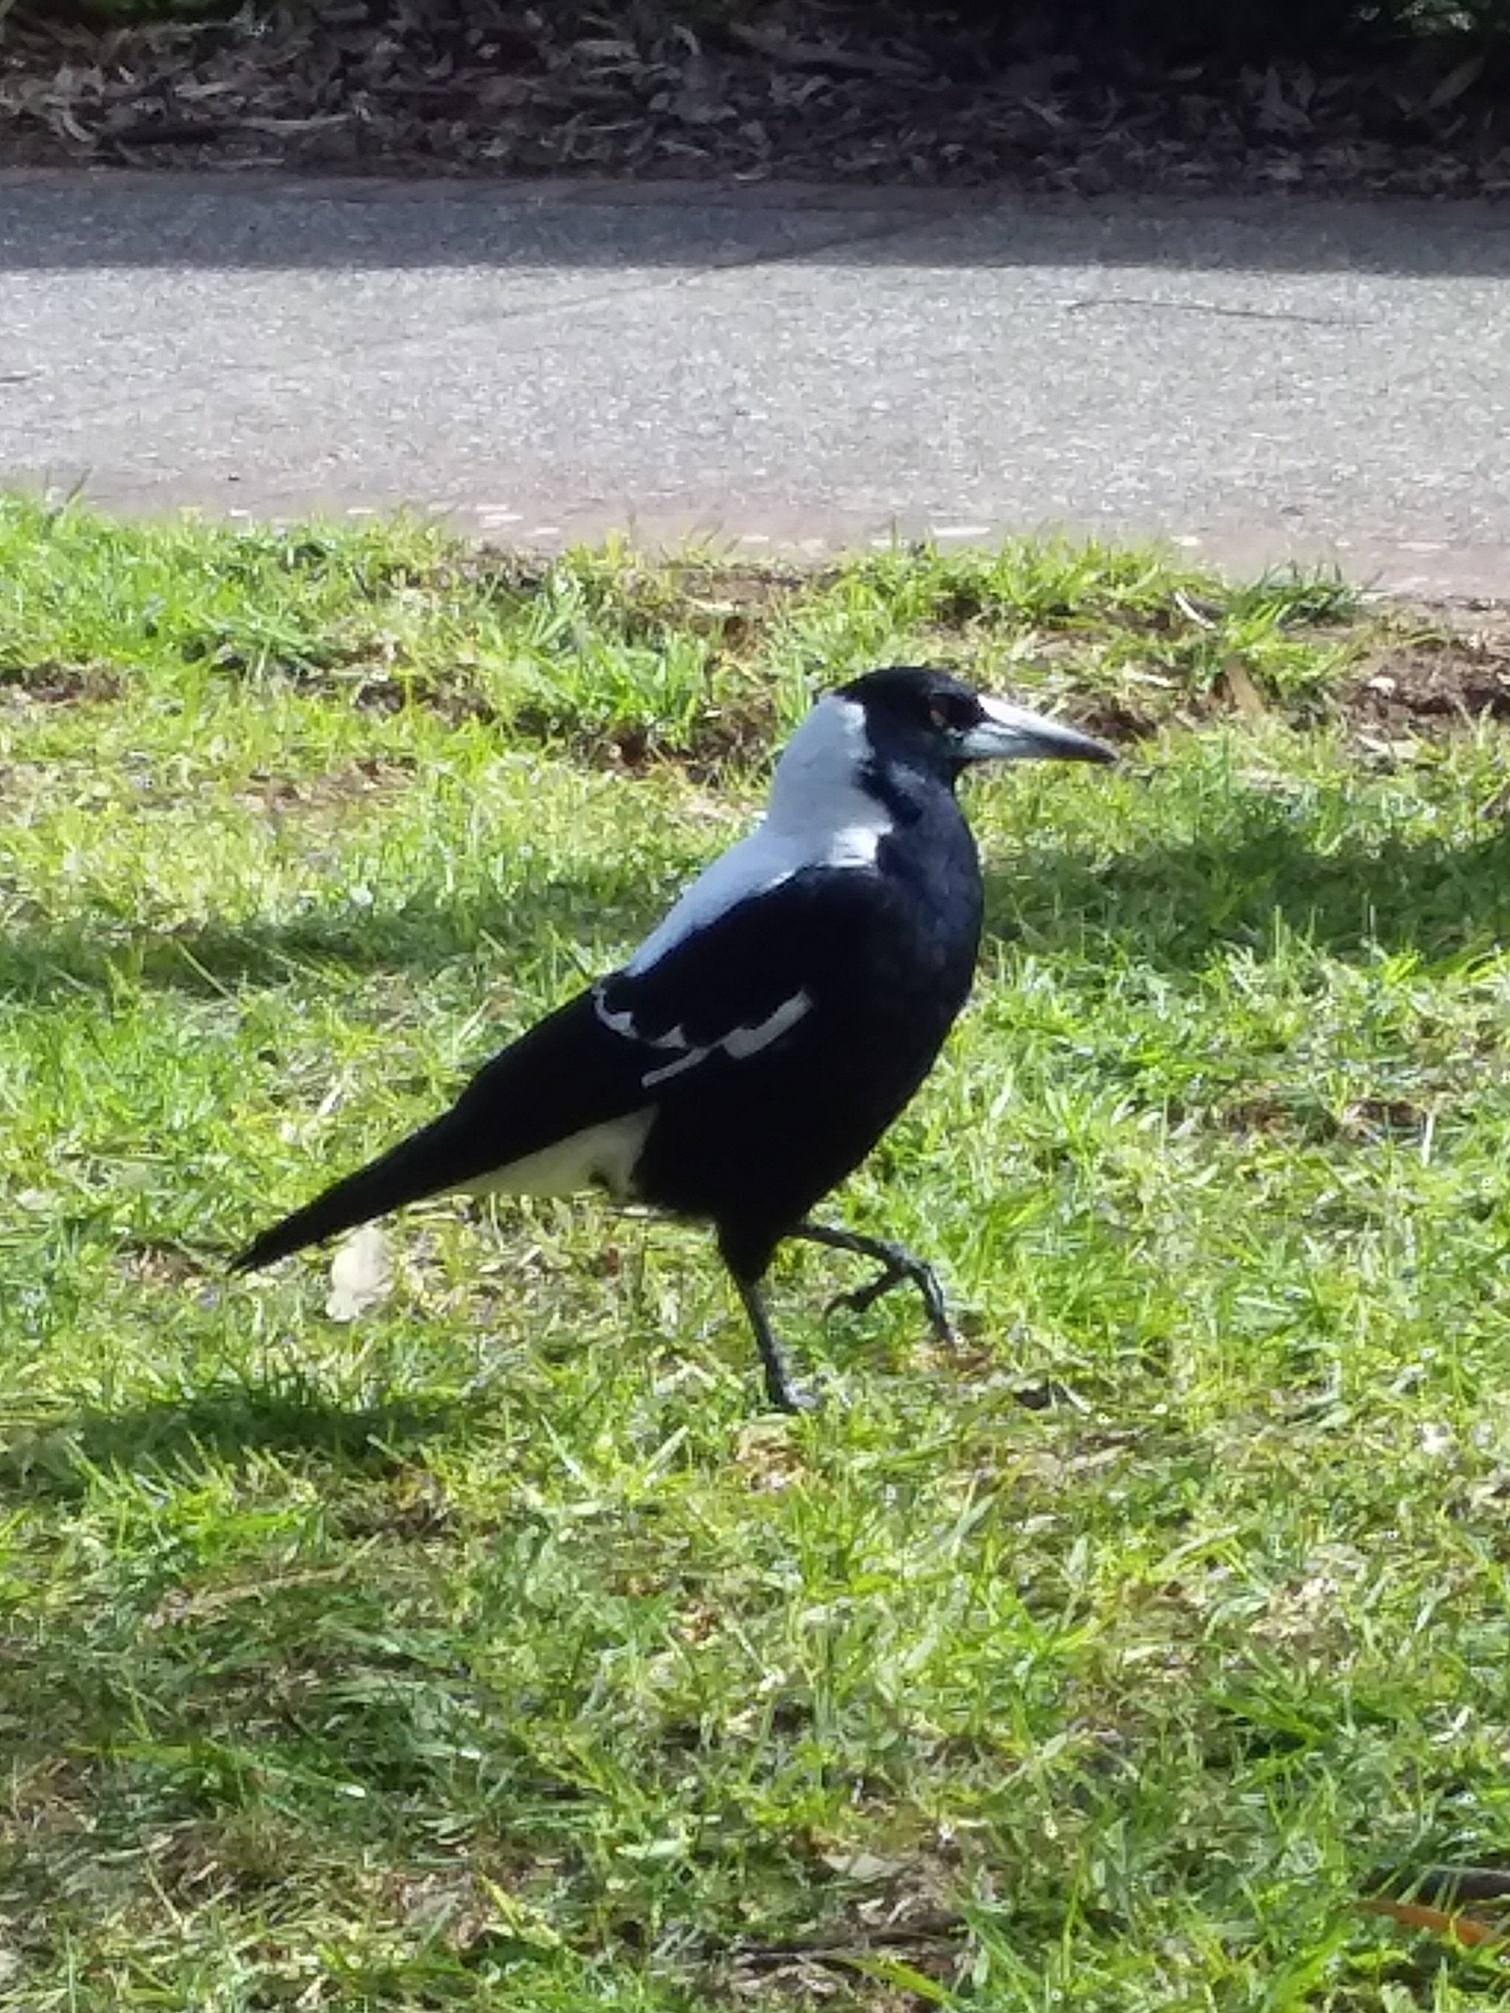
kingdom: Animalia
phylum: Chordata
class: Aves
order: Passeriformes
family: Cracticidae
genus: Gymnorhina
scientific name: Gymnorhina tibicen
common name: Australian magpie
